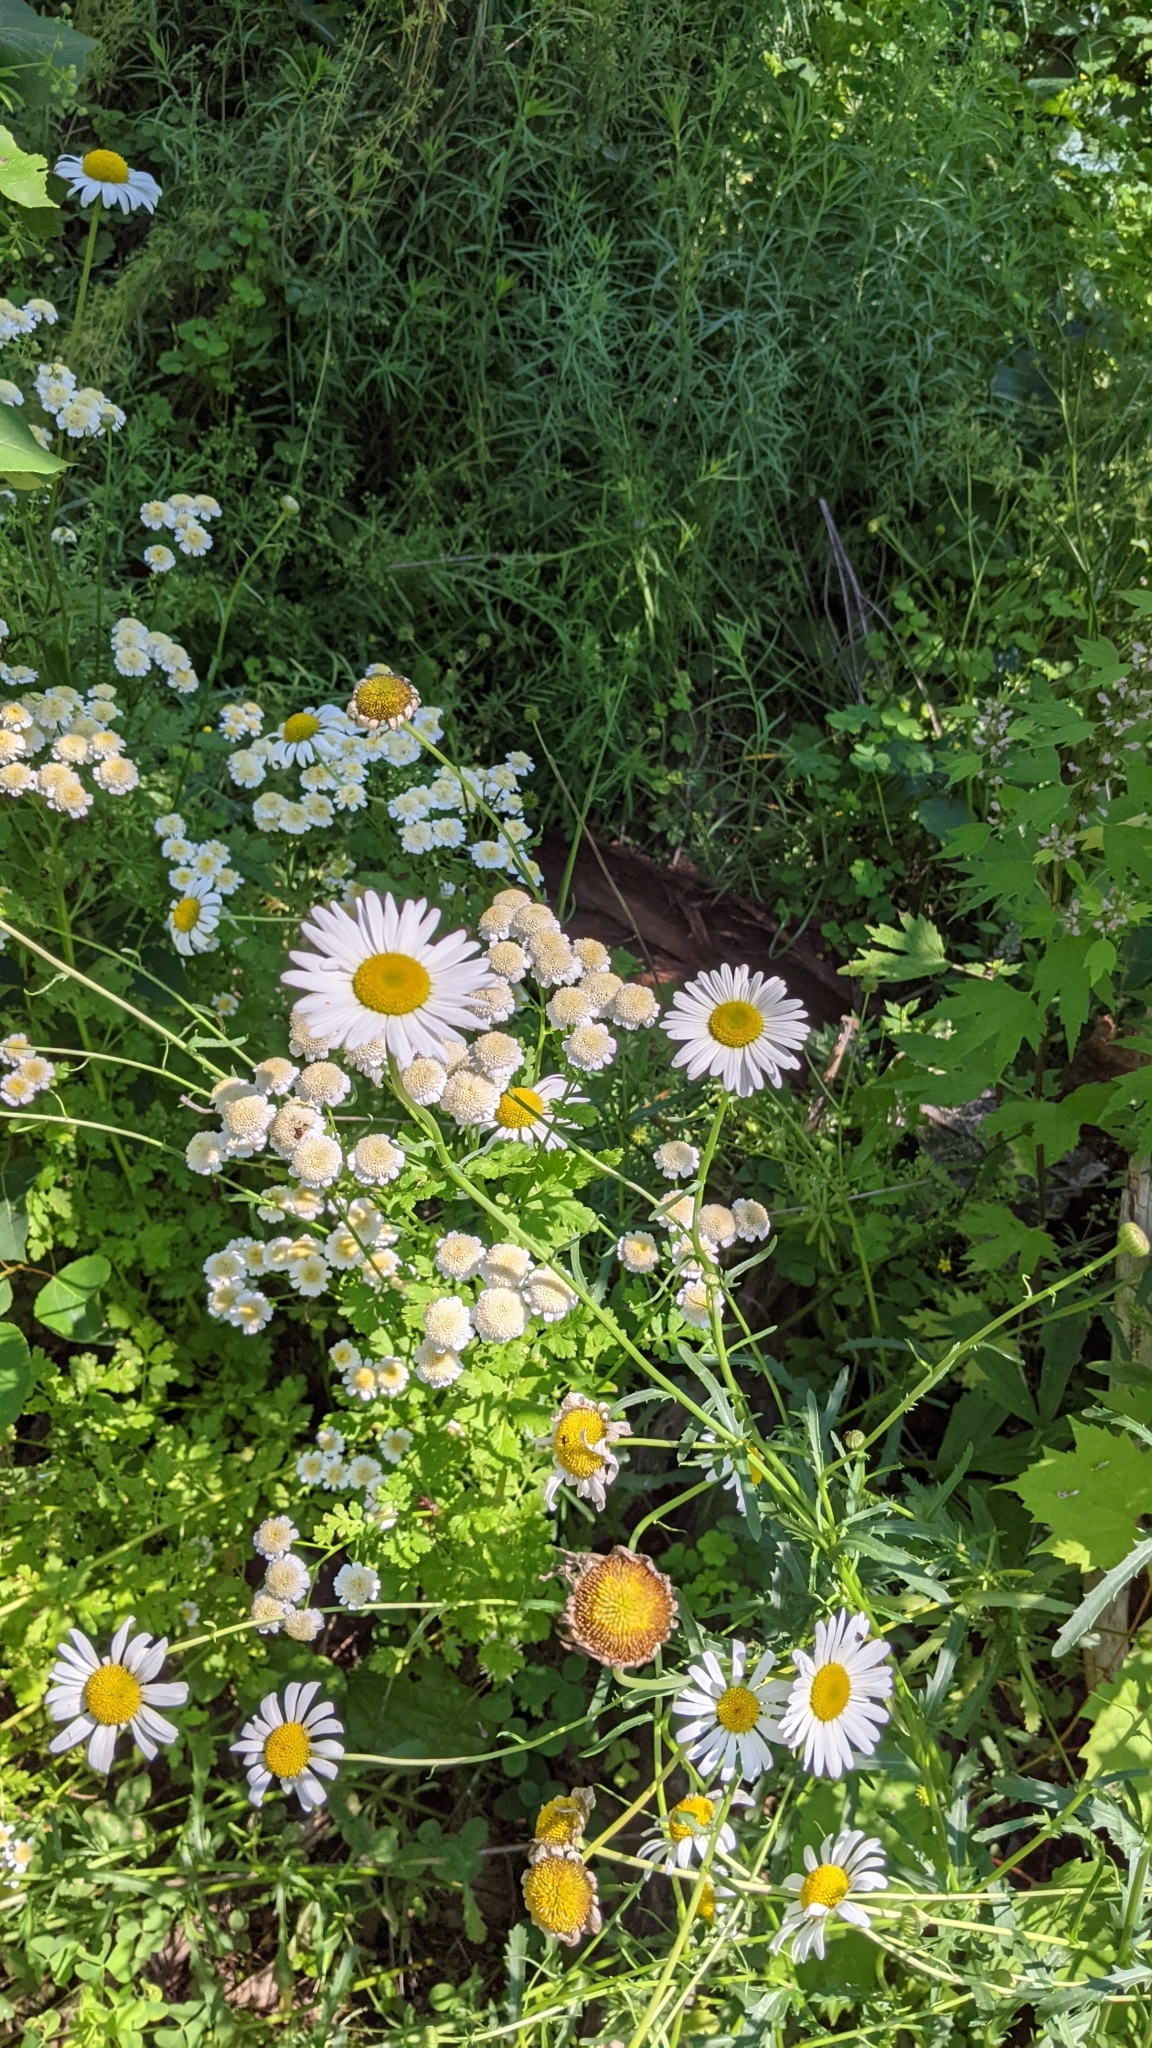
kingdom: Plantae
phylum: Tracheophyta
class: Magnoliopsida
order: Asterales
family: Asteraceae
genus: Tanacetum
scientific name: Tanacetum parthenium
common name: Feverfew
